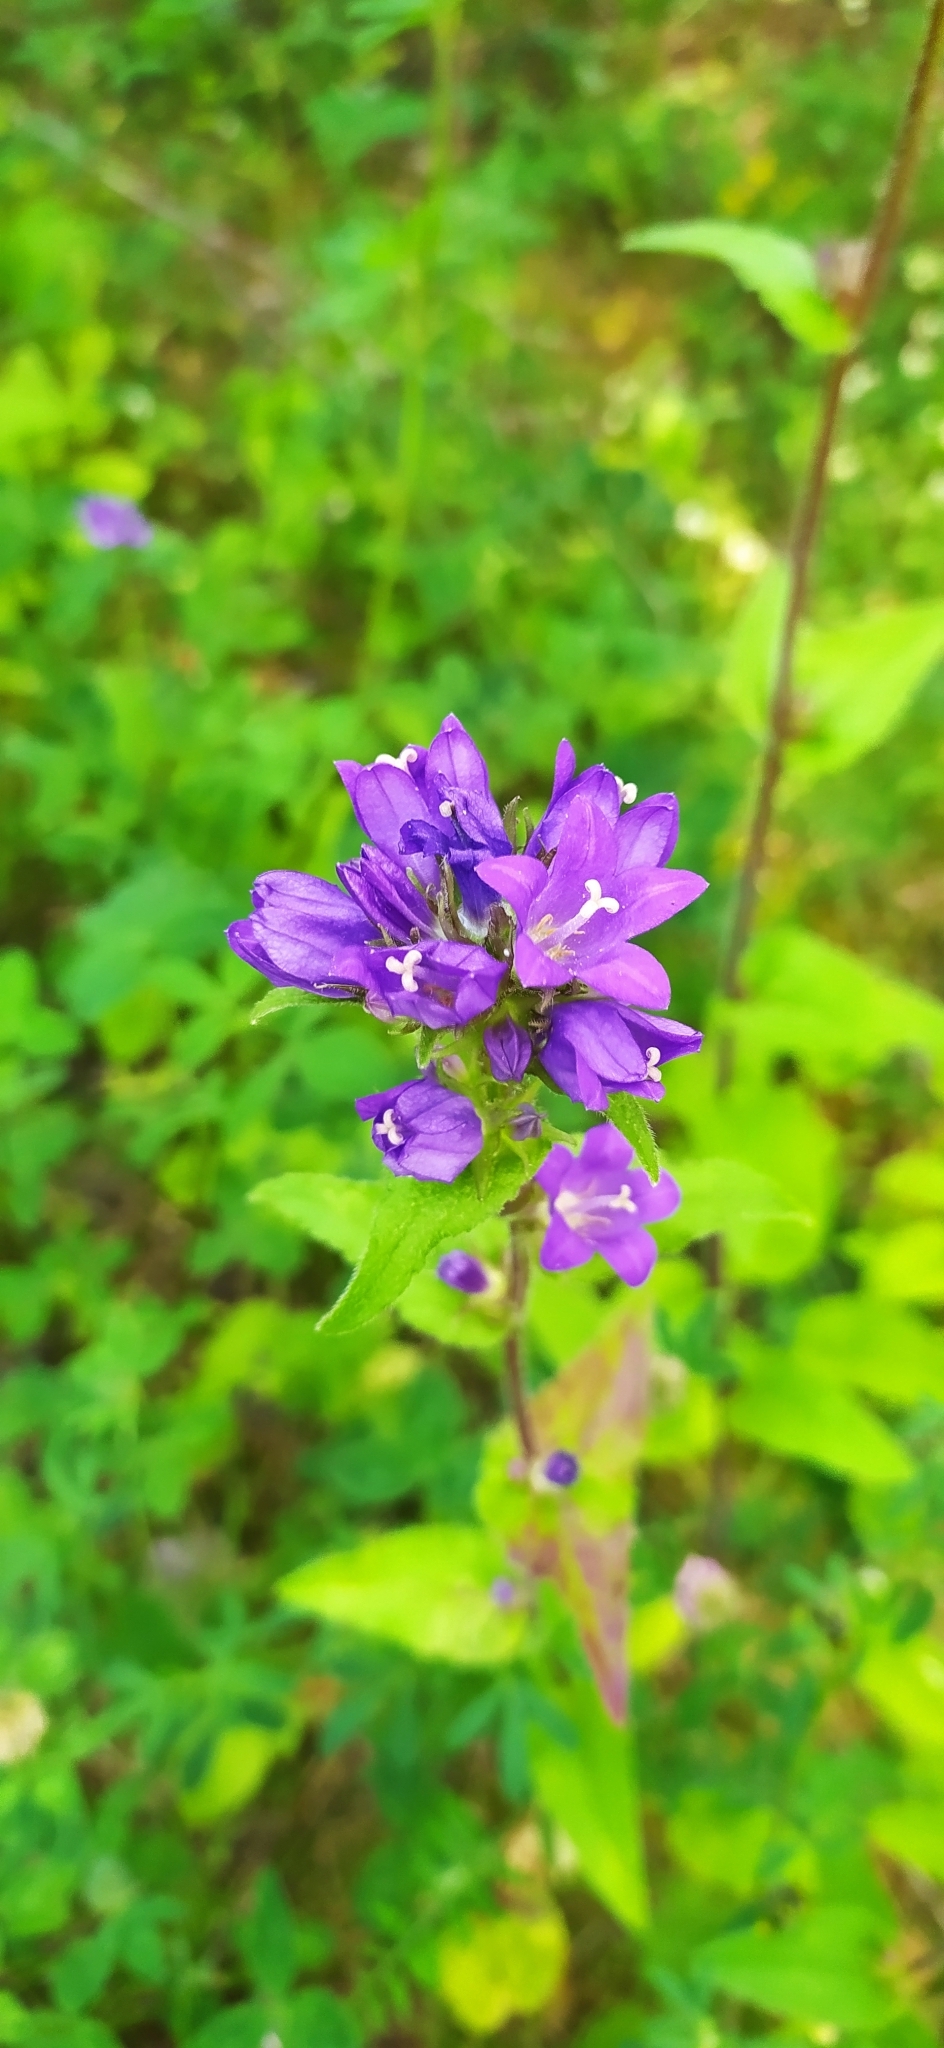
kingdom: Plantae
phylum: Tracheophyta
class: Magnoliopsida
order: Asterales
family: Campanulaceae
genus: Campanula
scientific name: Campanula glomerata
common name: Clustered bellflower
